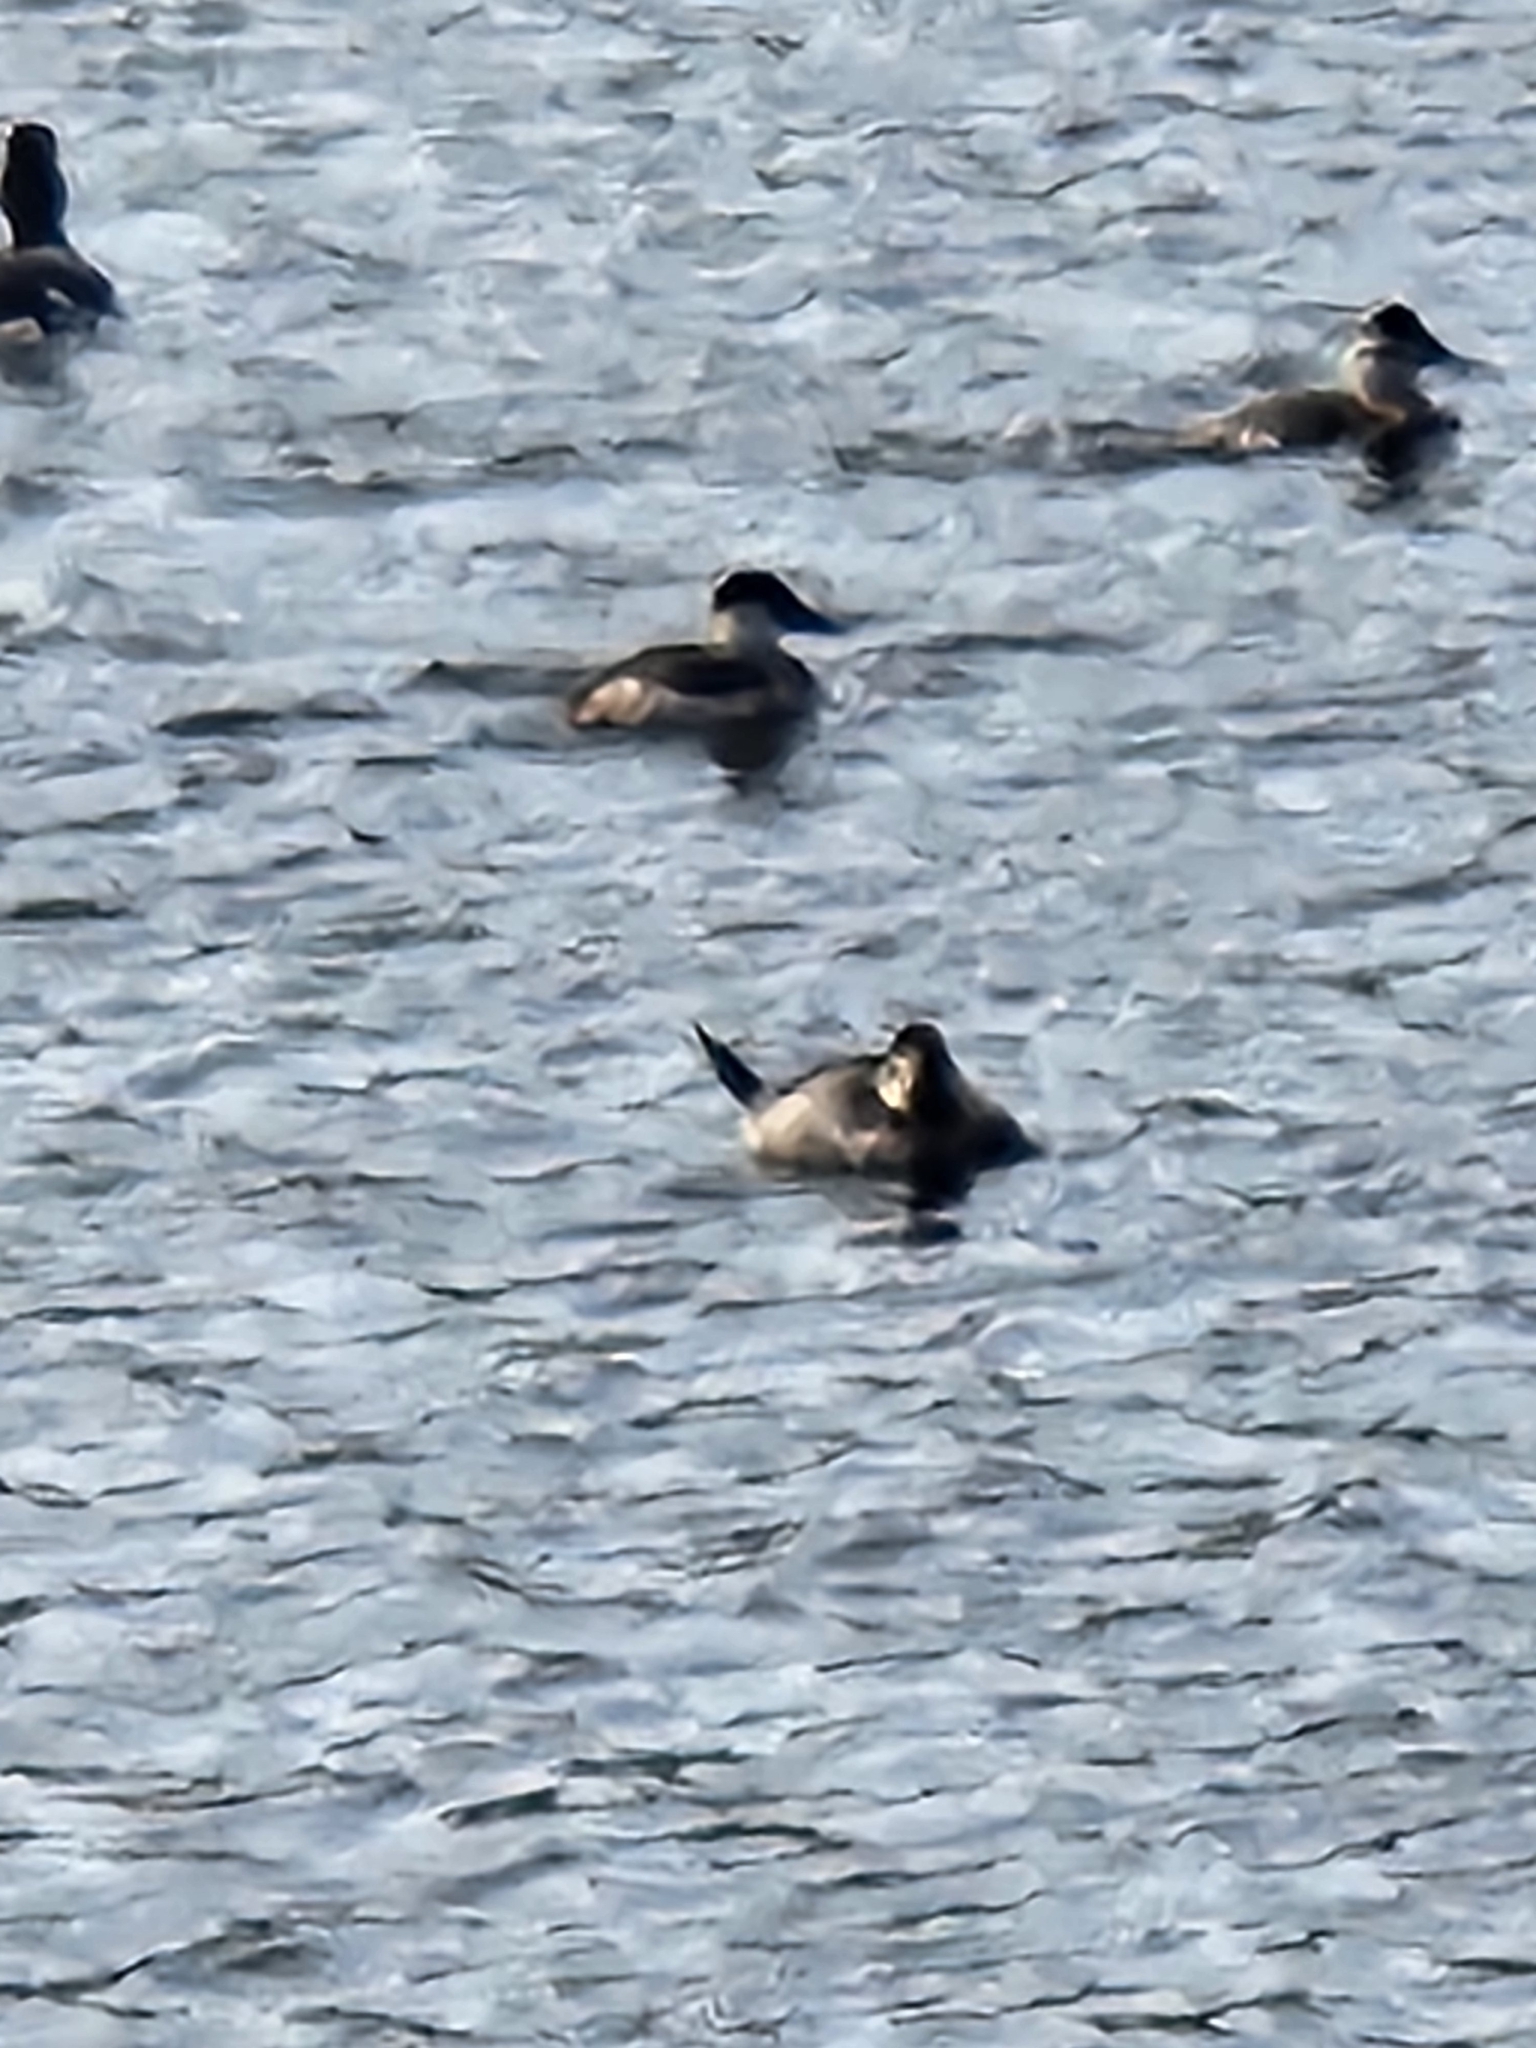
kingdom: Animalia
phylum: Chordata
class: Aves
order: Anseriformes
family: Anatidae
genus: Oxyura
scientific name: Oxyura jamaicensis
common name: Ruddy duck
